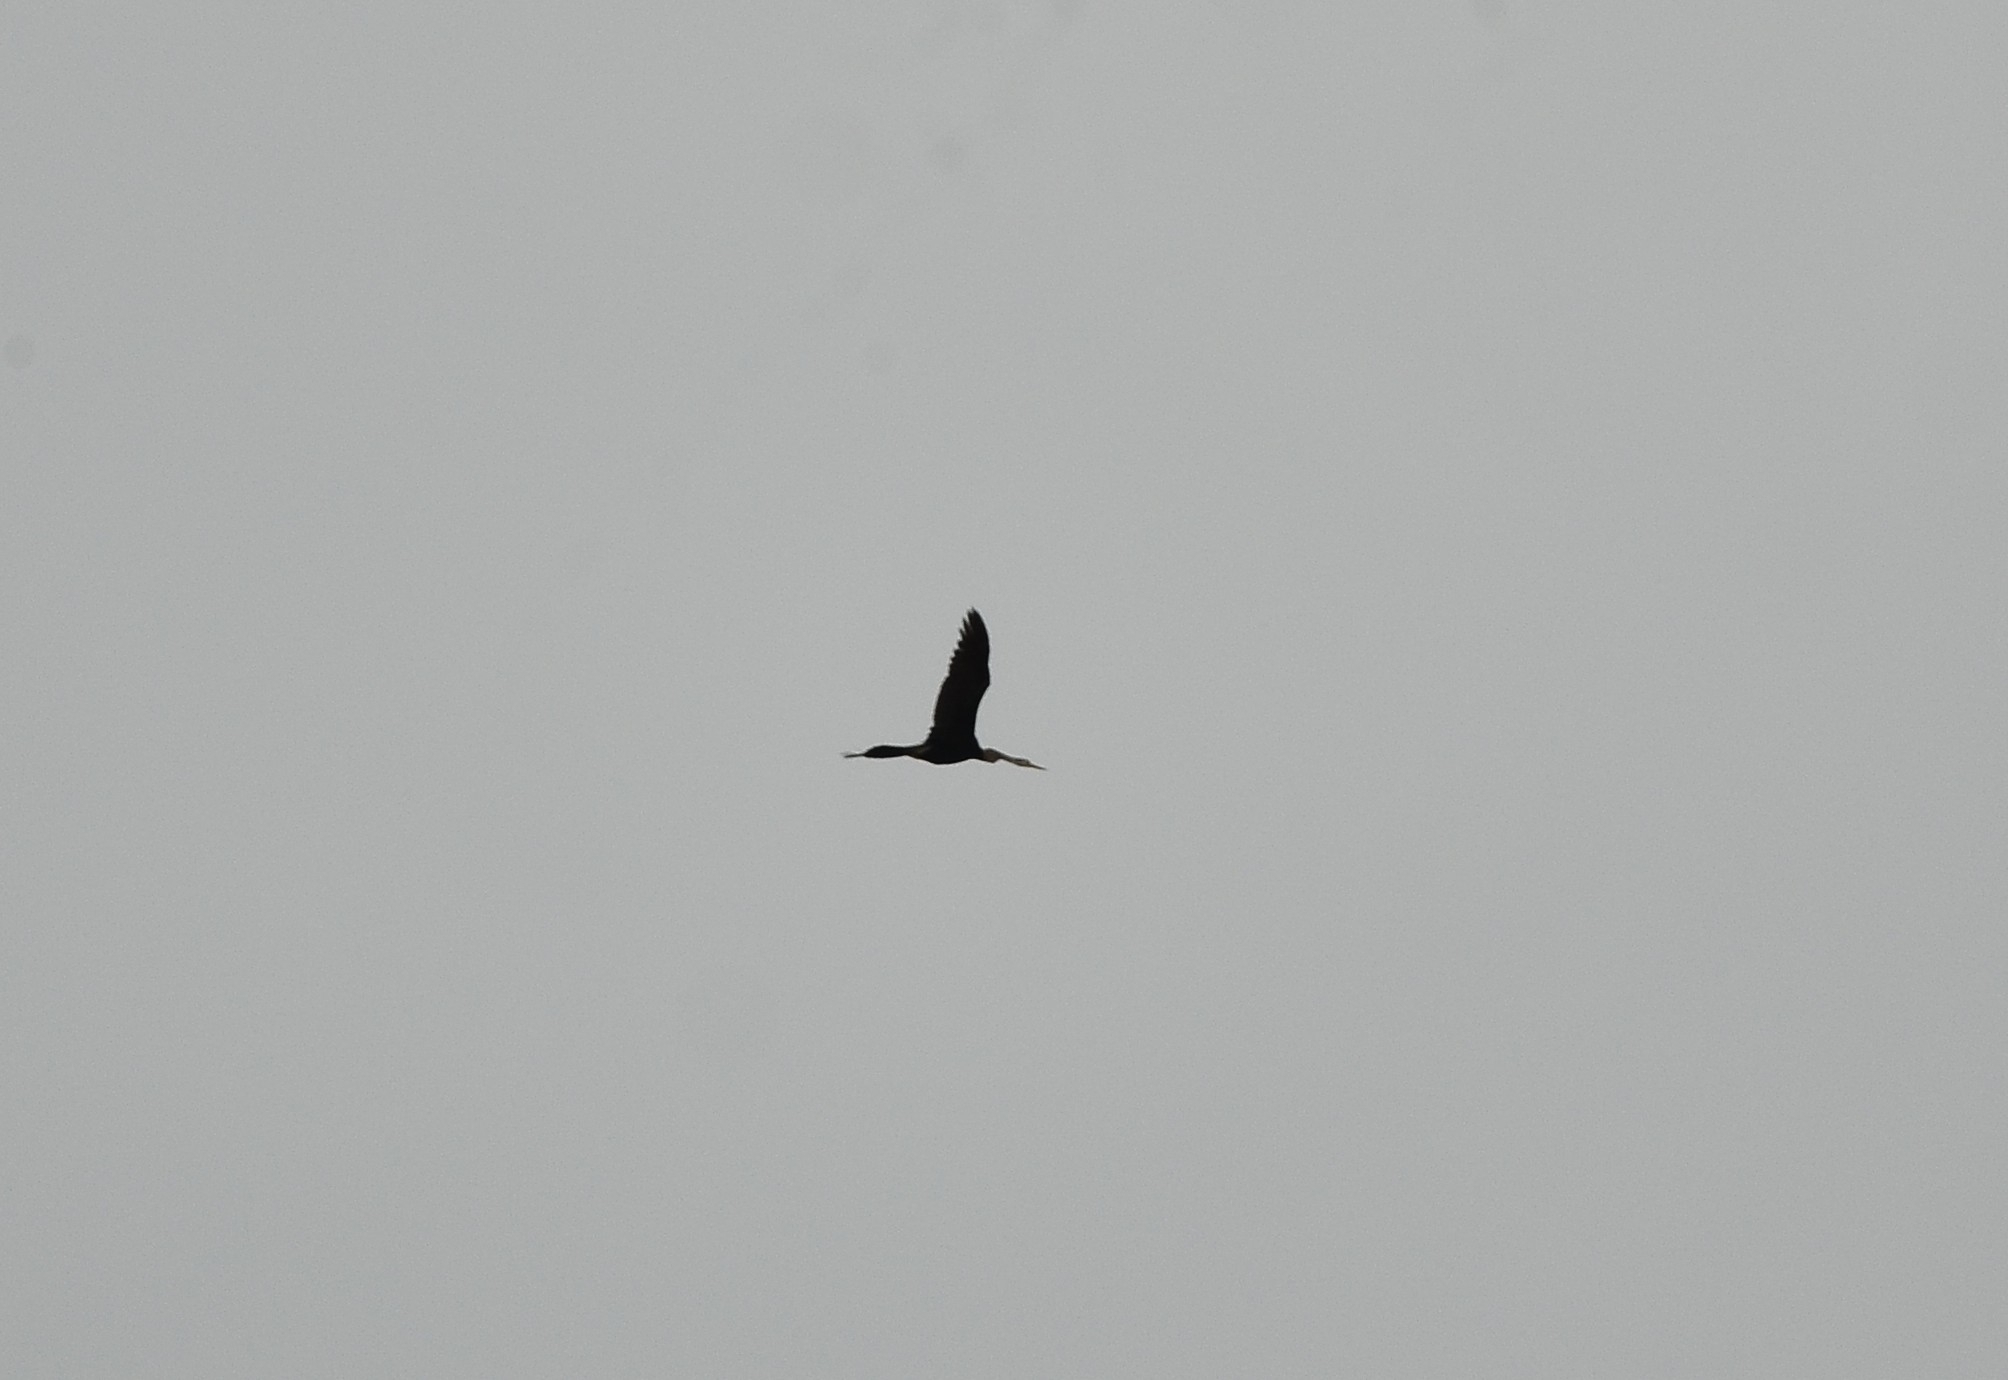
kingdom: Animalia
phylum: Chordata
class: Aves
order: Suliformes
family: Anhingidae
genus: Anhinga
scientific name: Anhinga melanogaster
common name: Oriental darter
